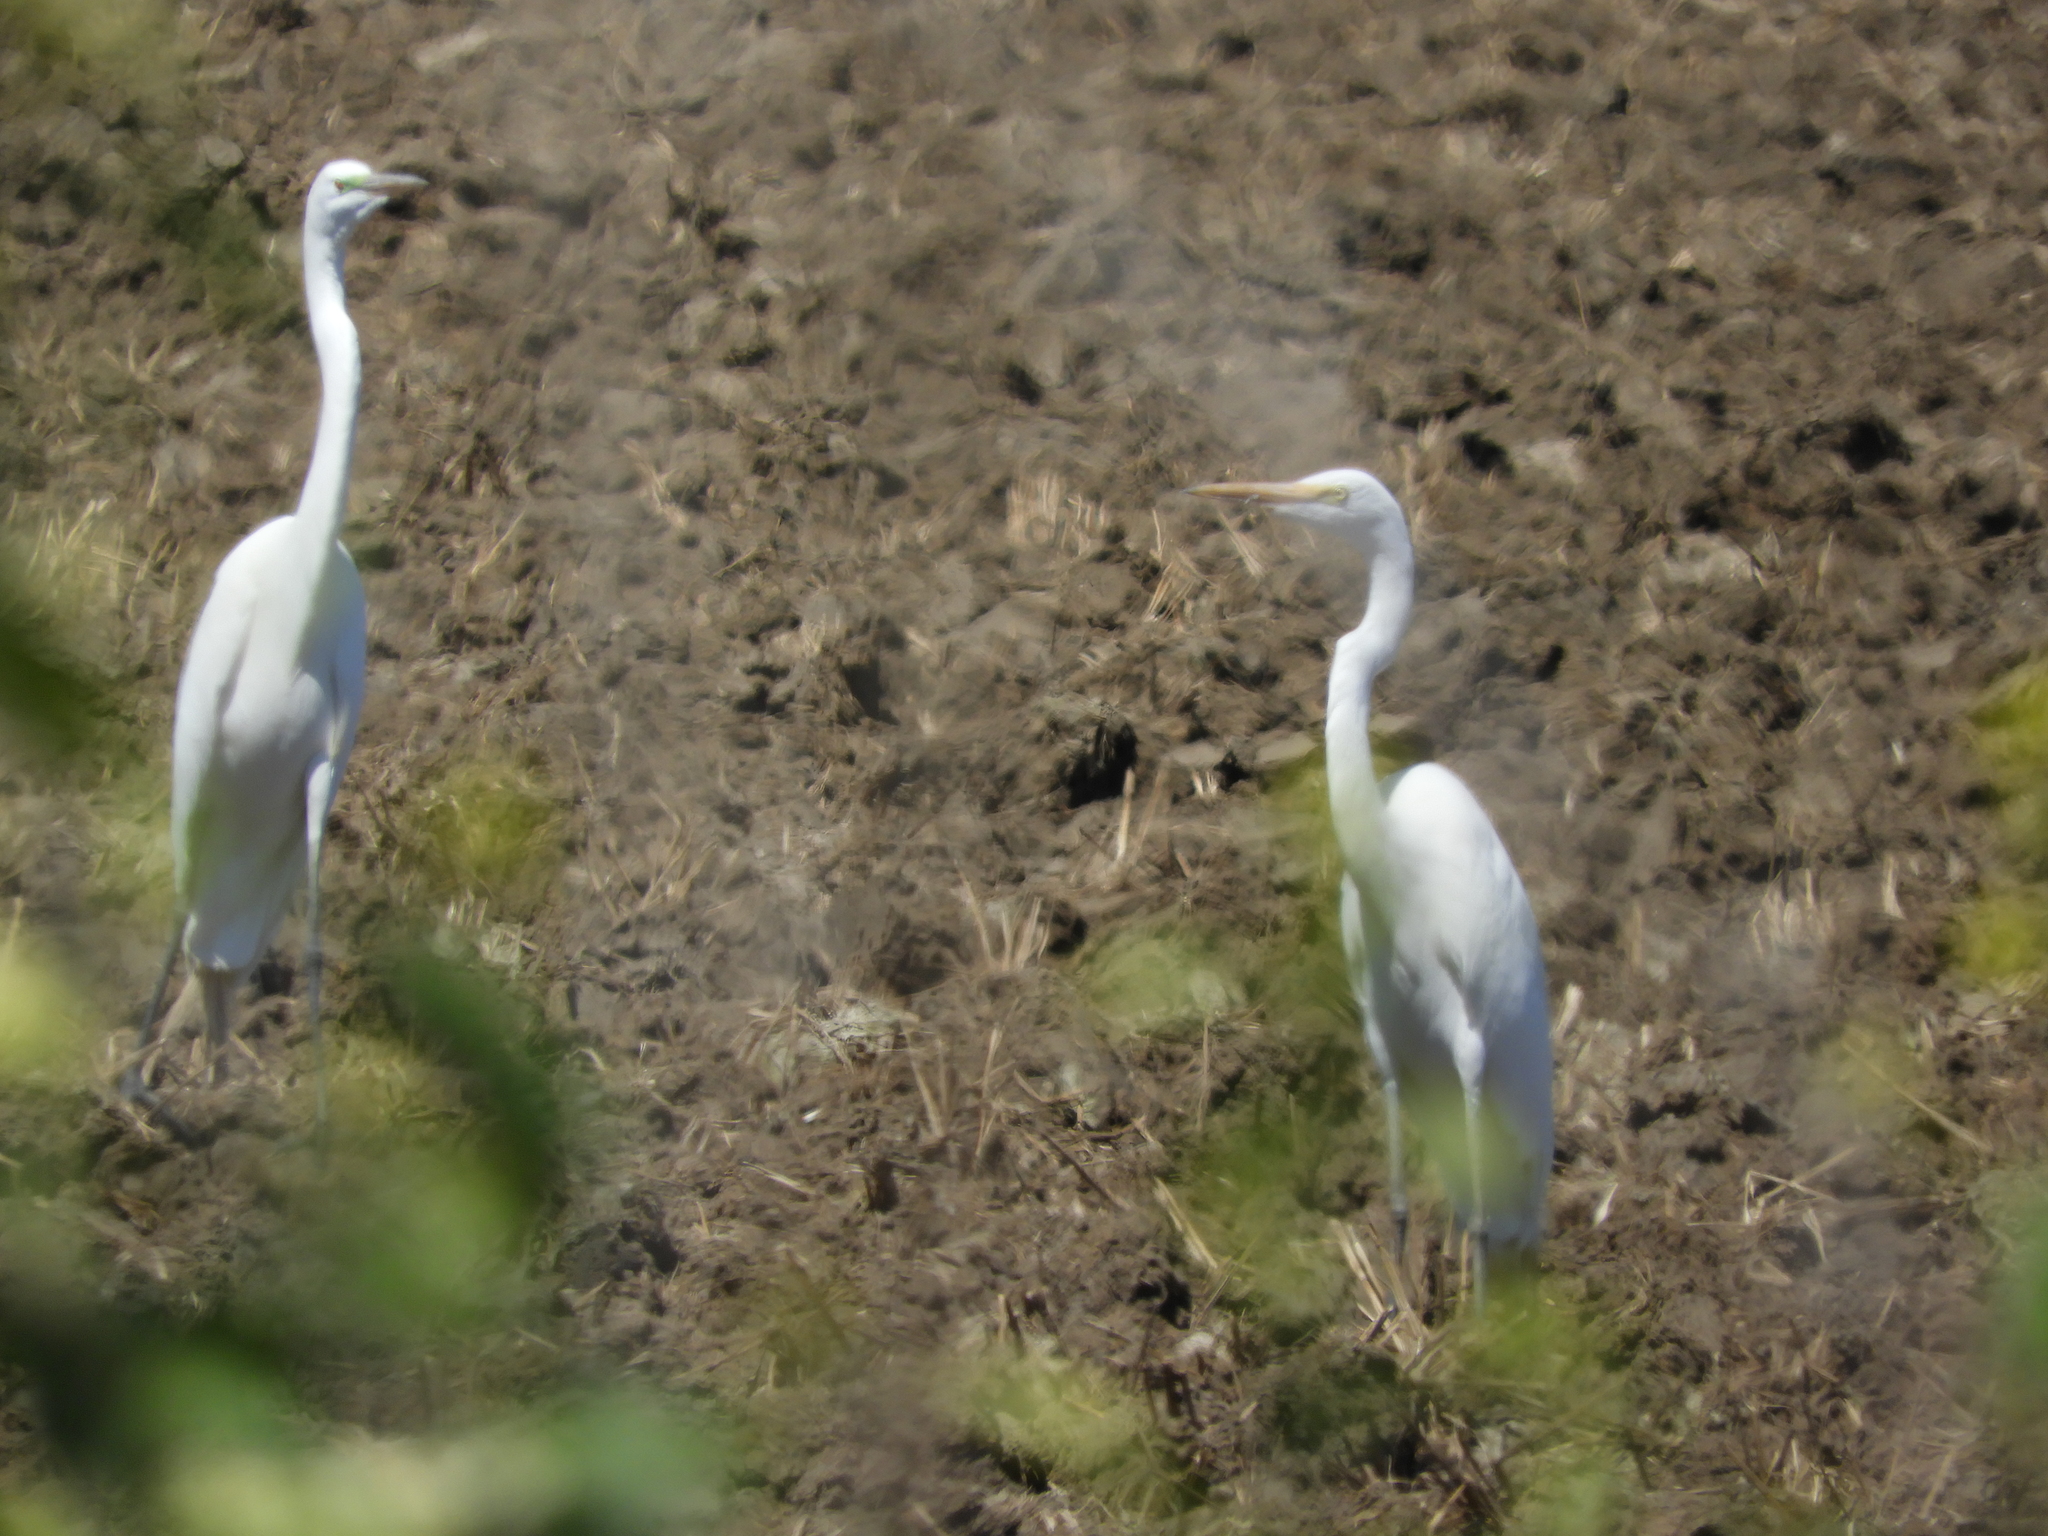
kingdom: Animalia
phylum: Chordata
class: Aves
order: Pelecaniformes
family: Ardeidae
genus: Ardea
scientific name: Ardea alba
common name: Great egret
